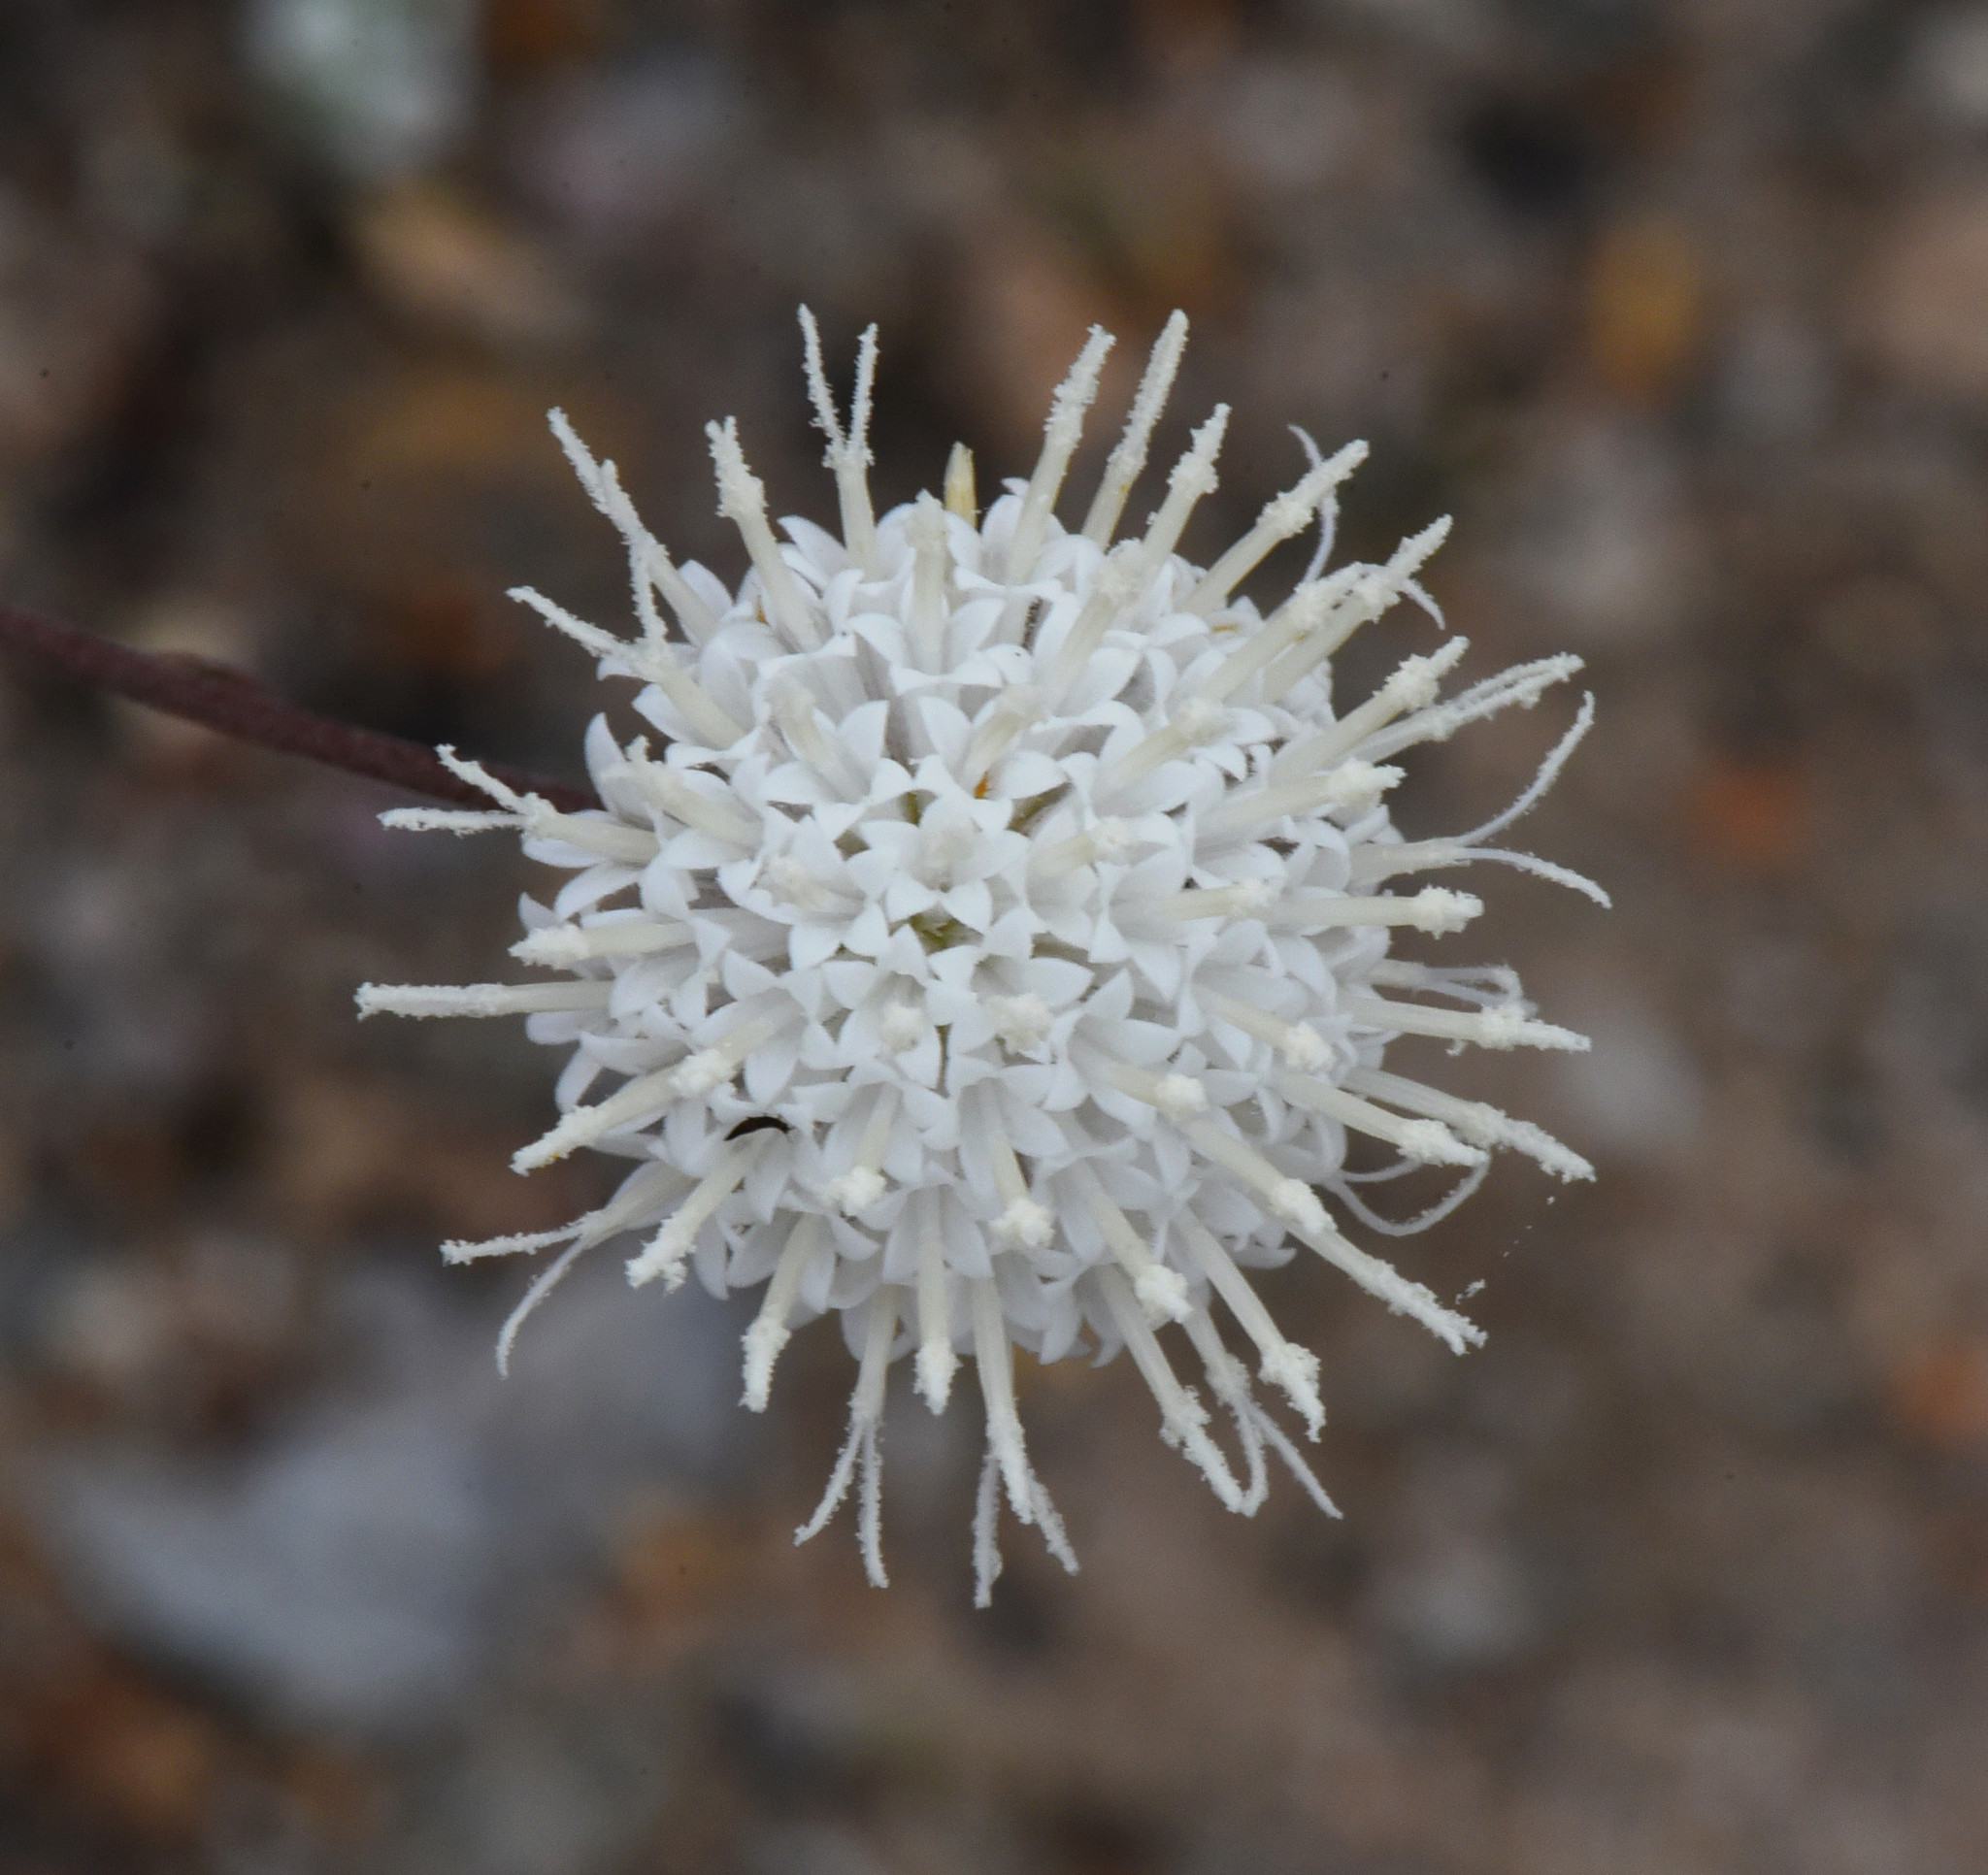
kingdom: Plantae
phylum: Tracheophyta
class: Magnoliopsida
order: Asterales
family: Asteraceae
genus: Chaenactis
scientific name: Chaenactis carphoclinia
